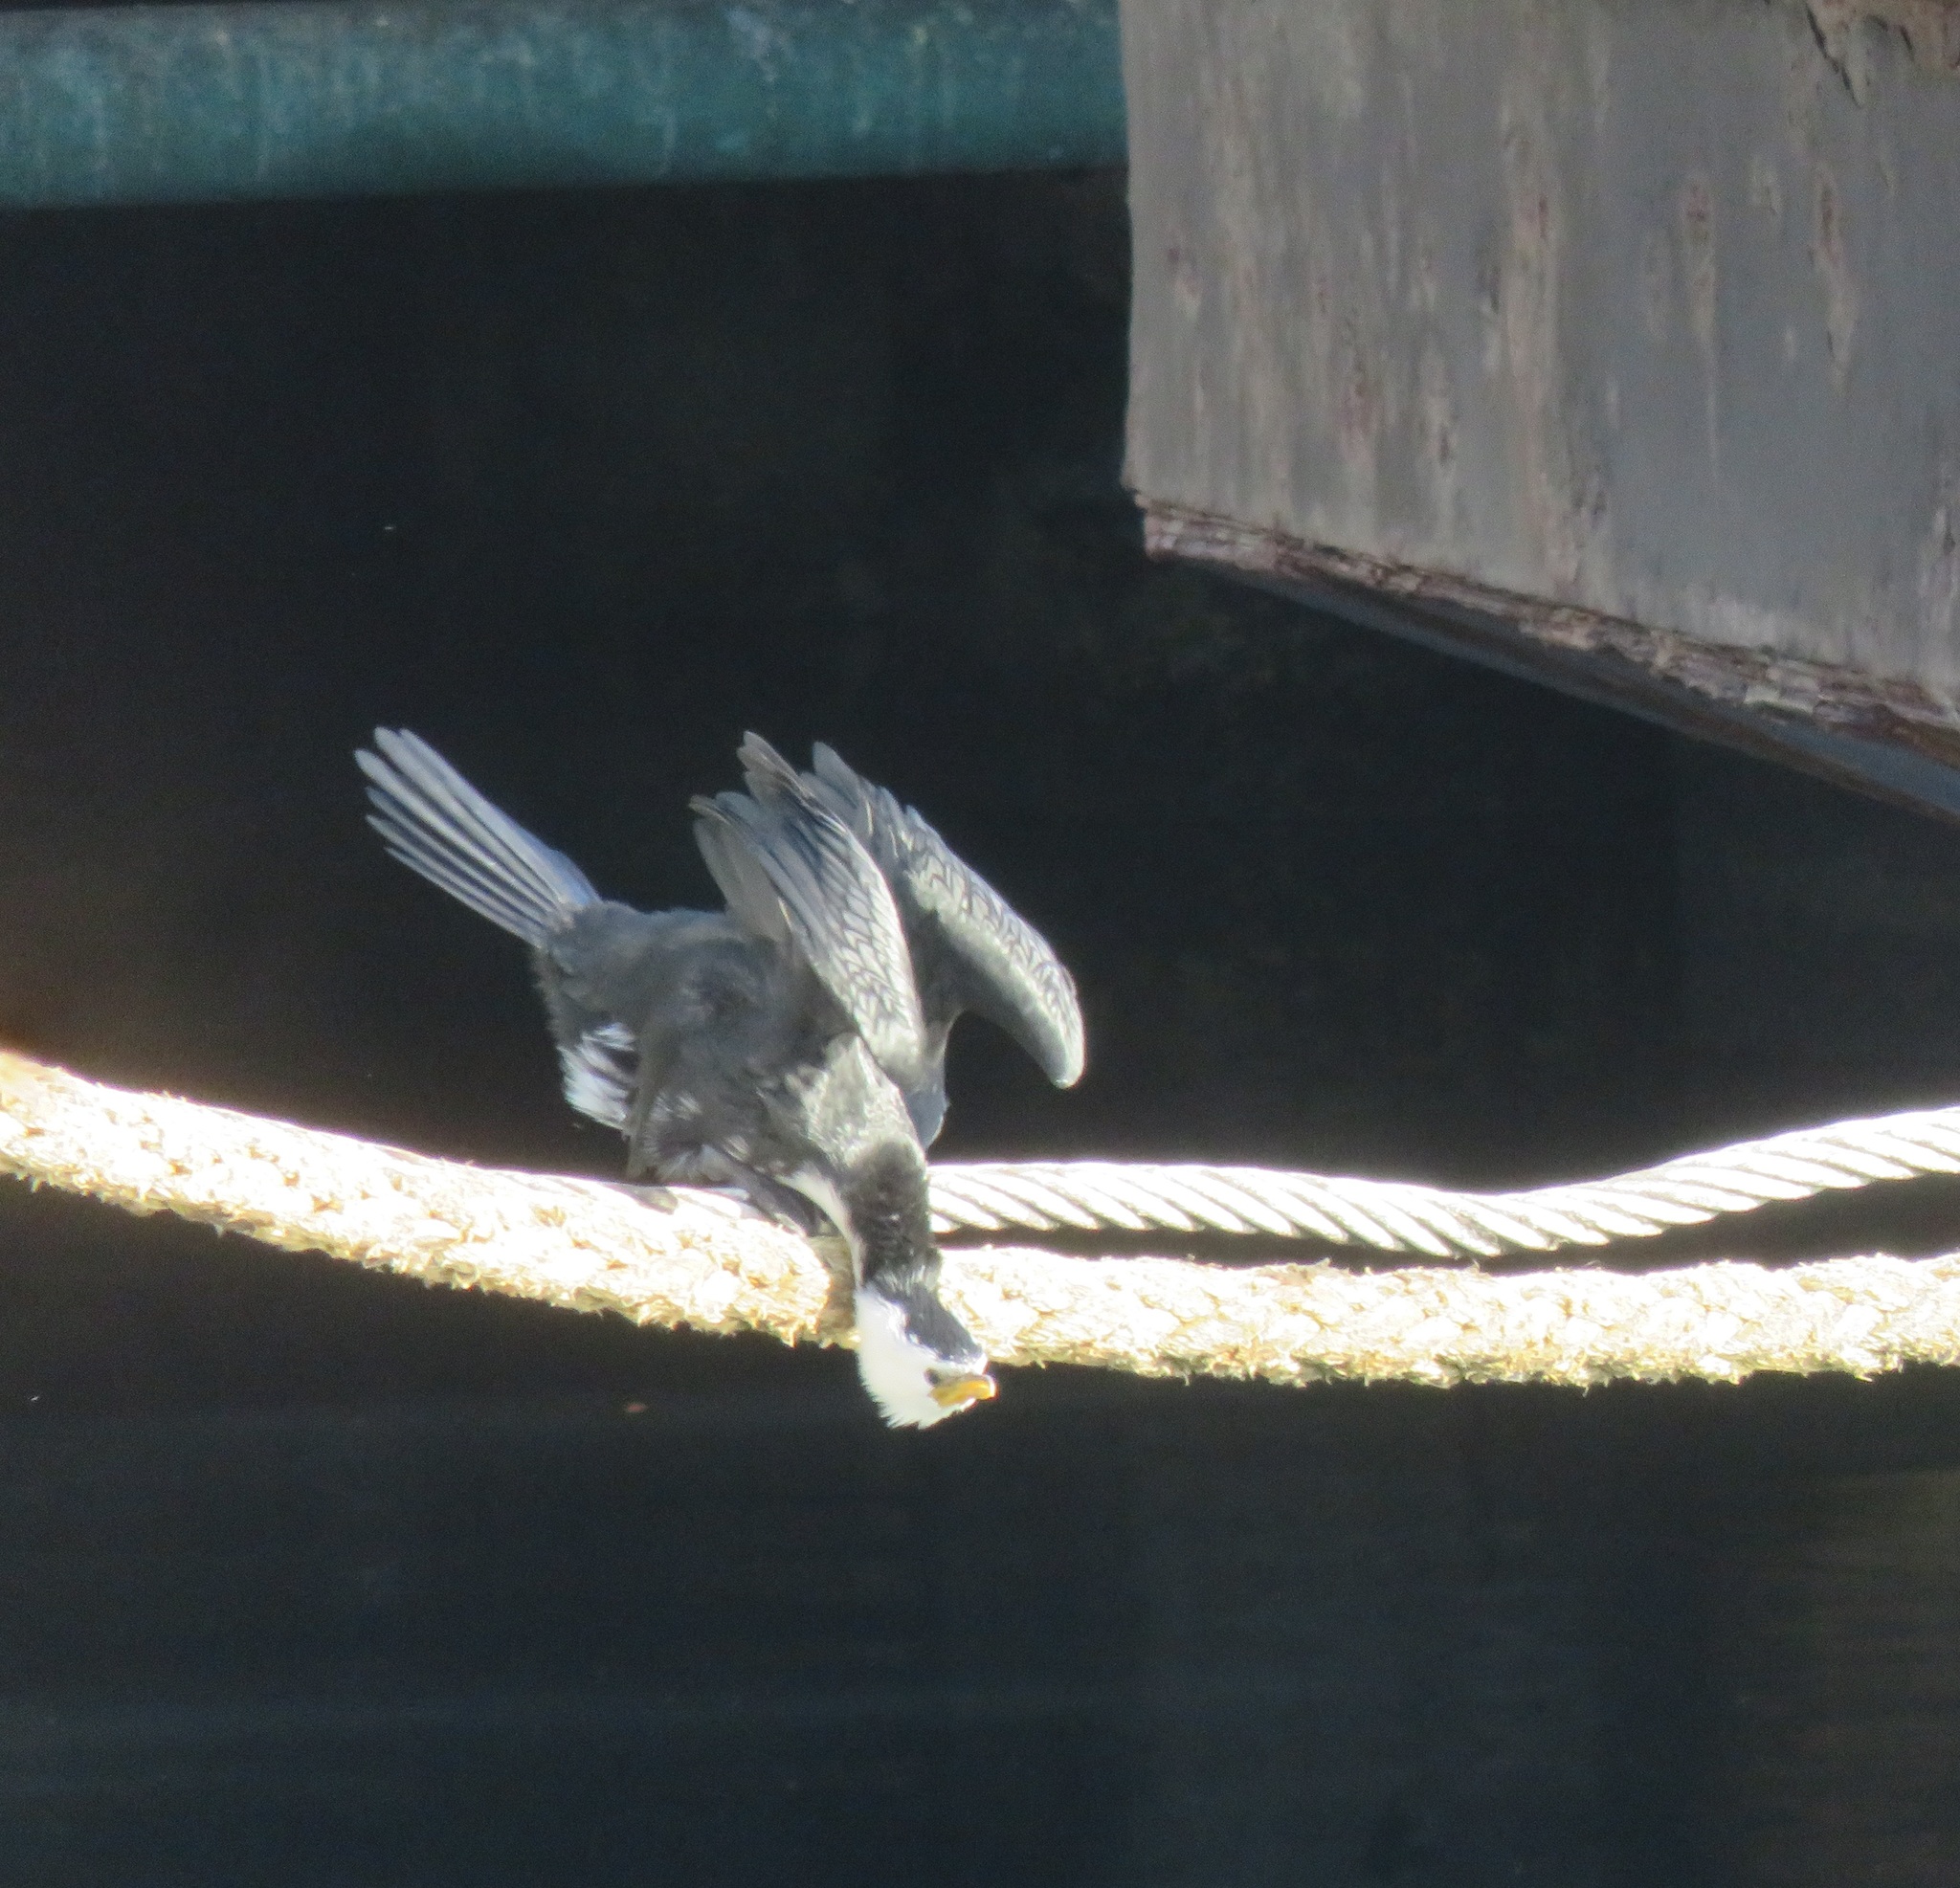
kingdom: Animalia
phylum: Chordata
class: Aves
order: Suliformes
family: Phalacrocoracidae
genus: Microcarbo
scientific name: Microcarbo melanoleucos
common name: Little pied cormorant
